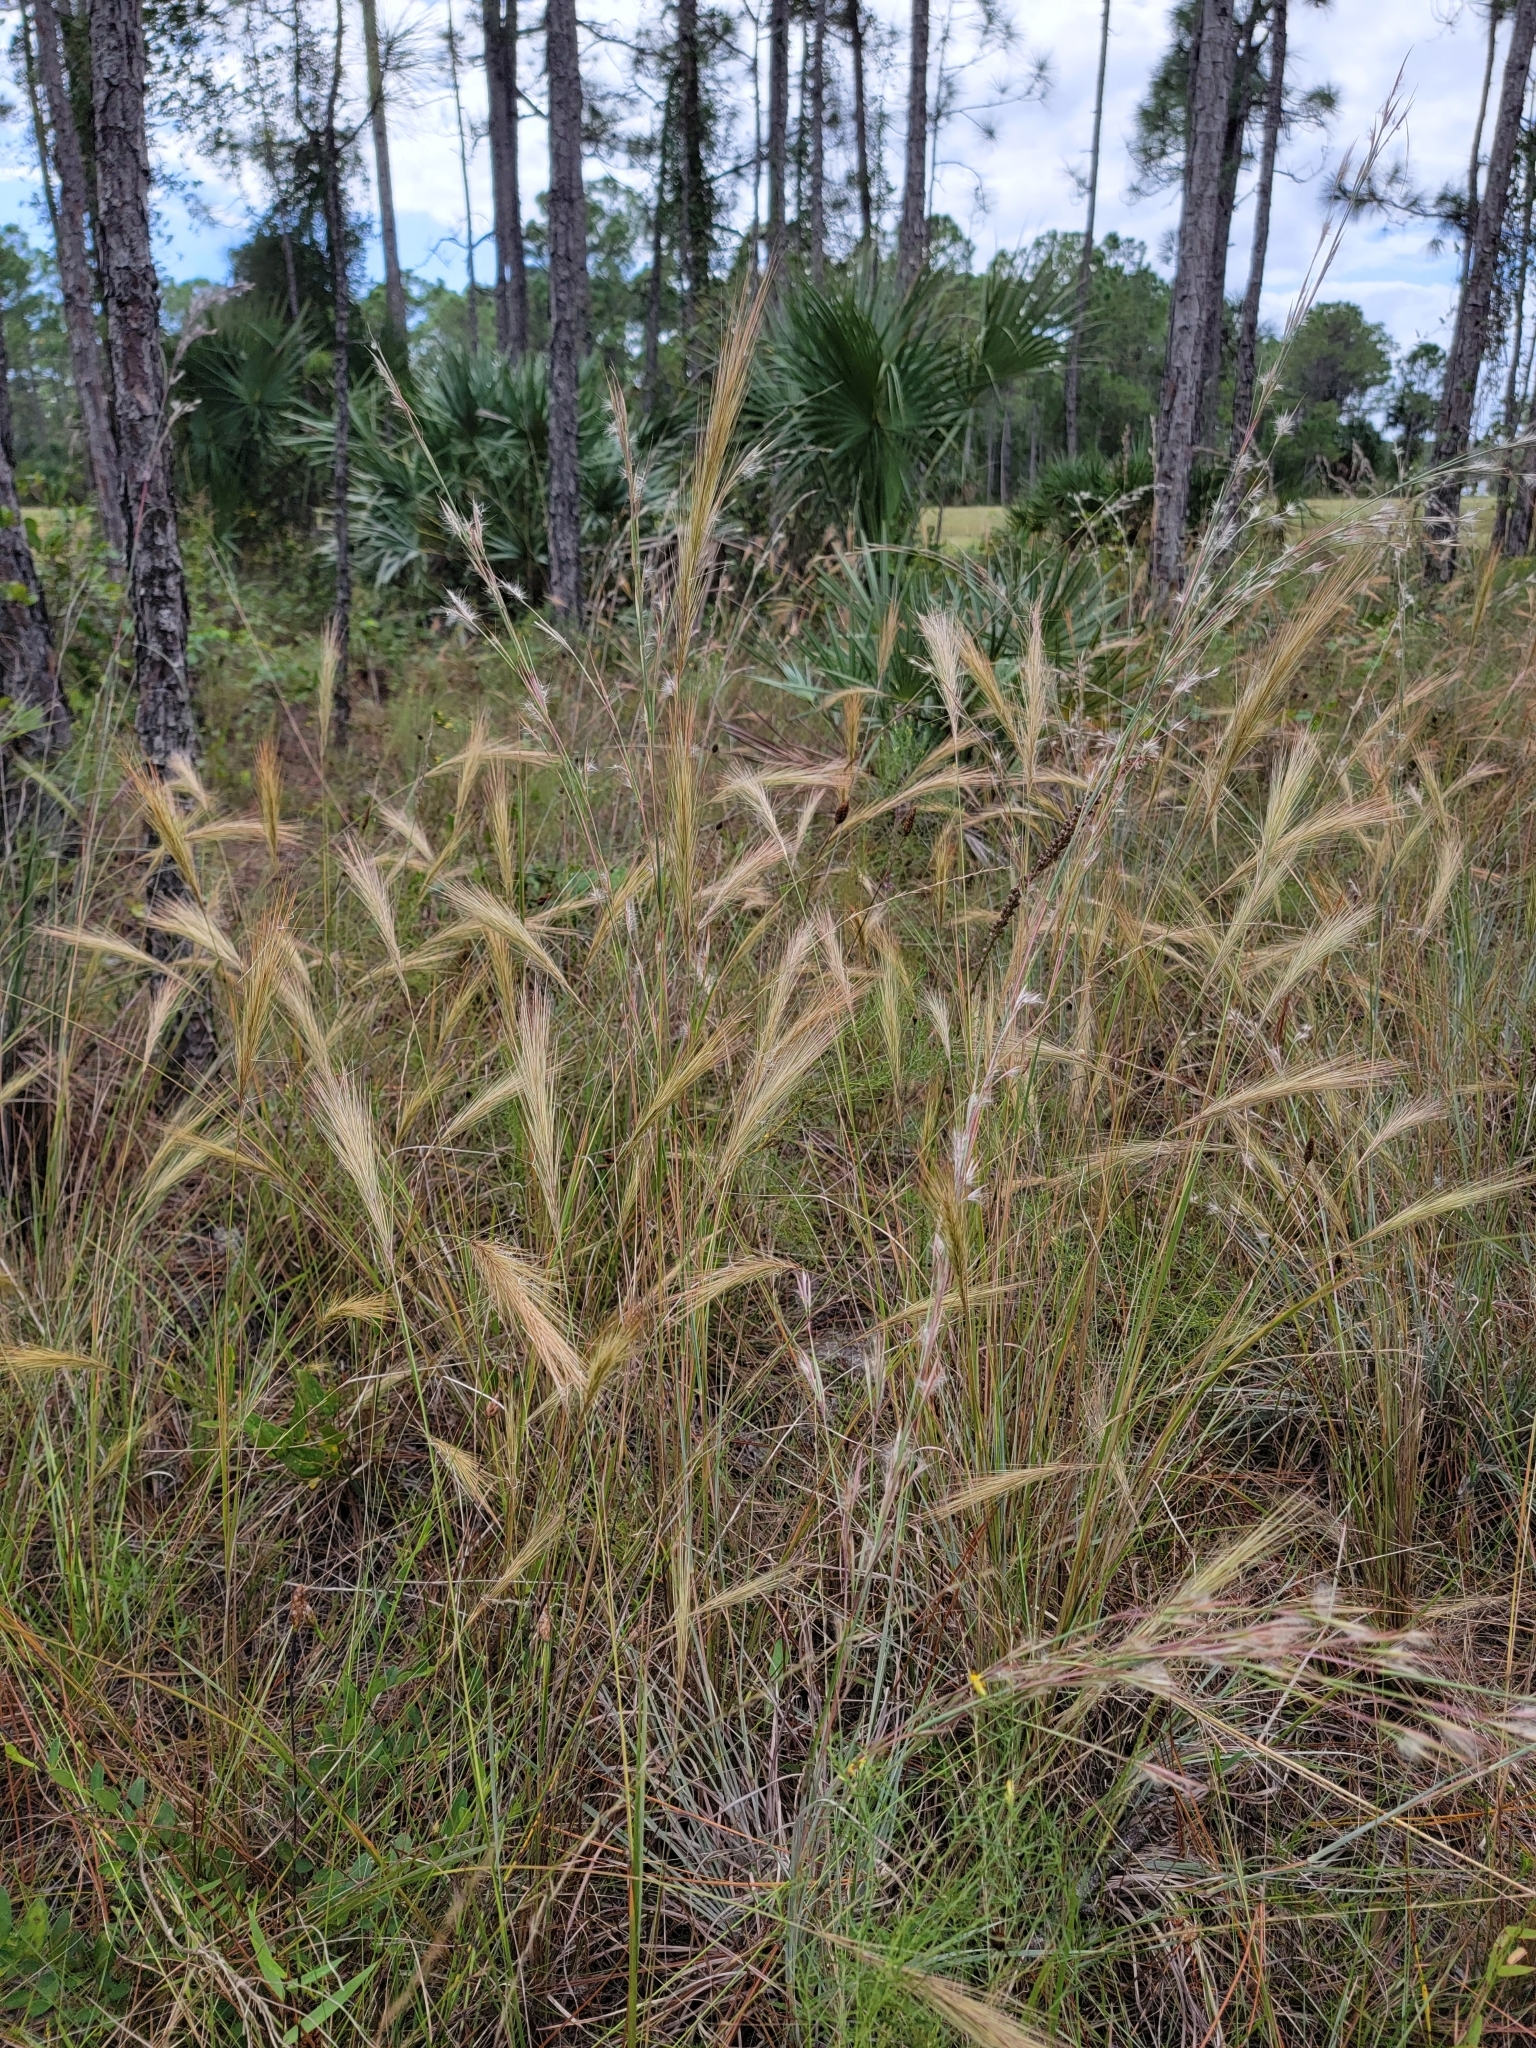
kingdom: Plantae
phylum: Tracheophyta
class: Liliopsida
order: Poales
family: Poaceae
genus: Aristida
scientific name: Aristida spiciformis
